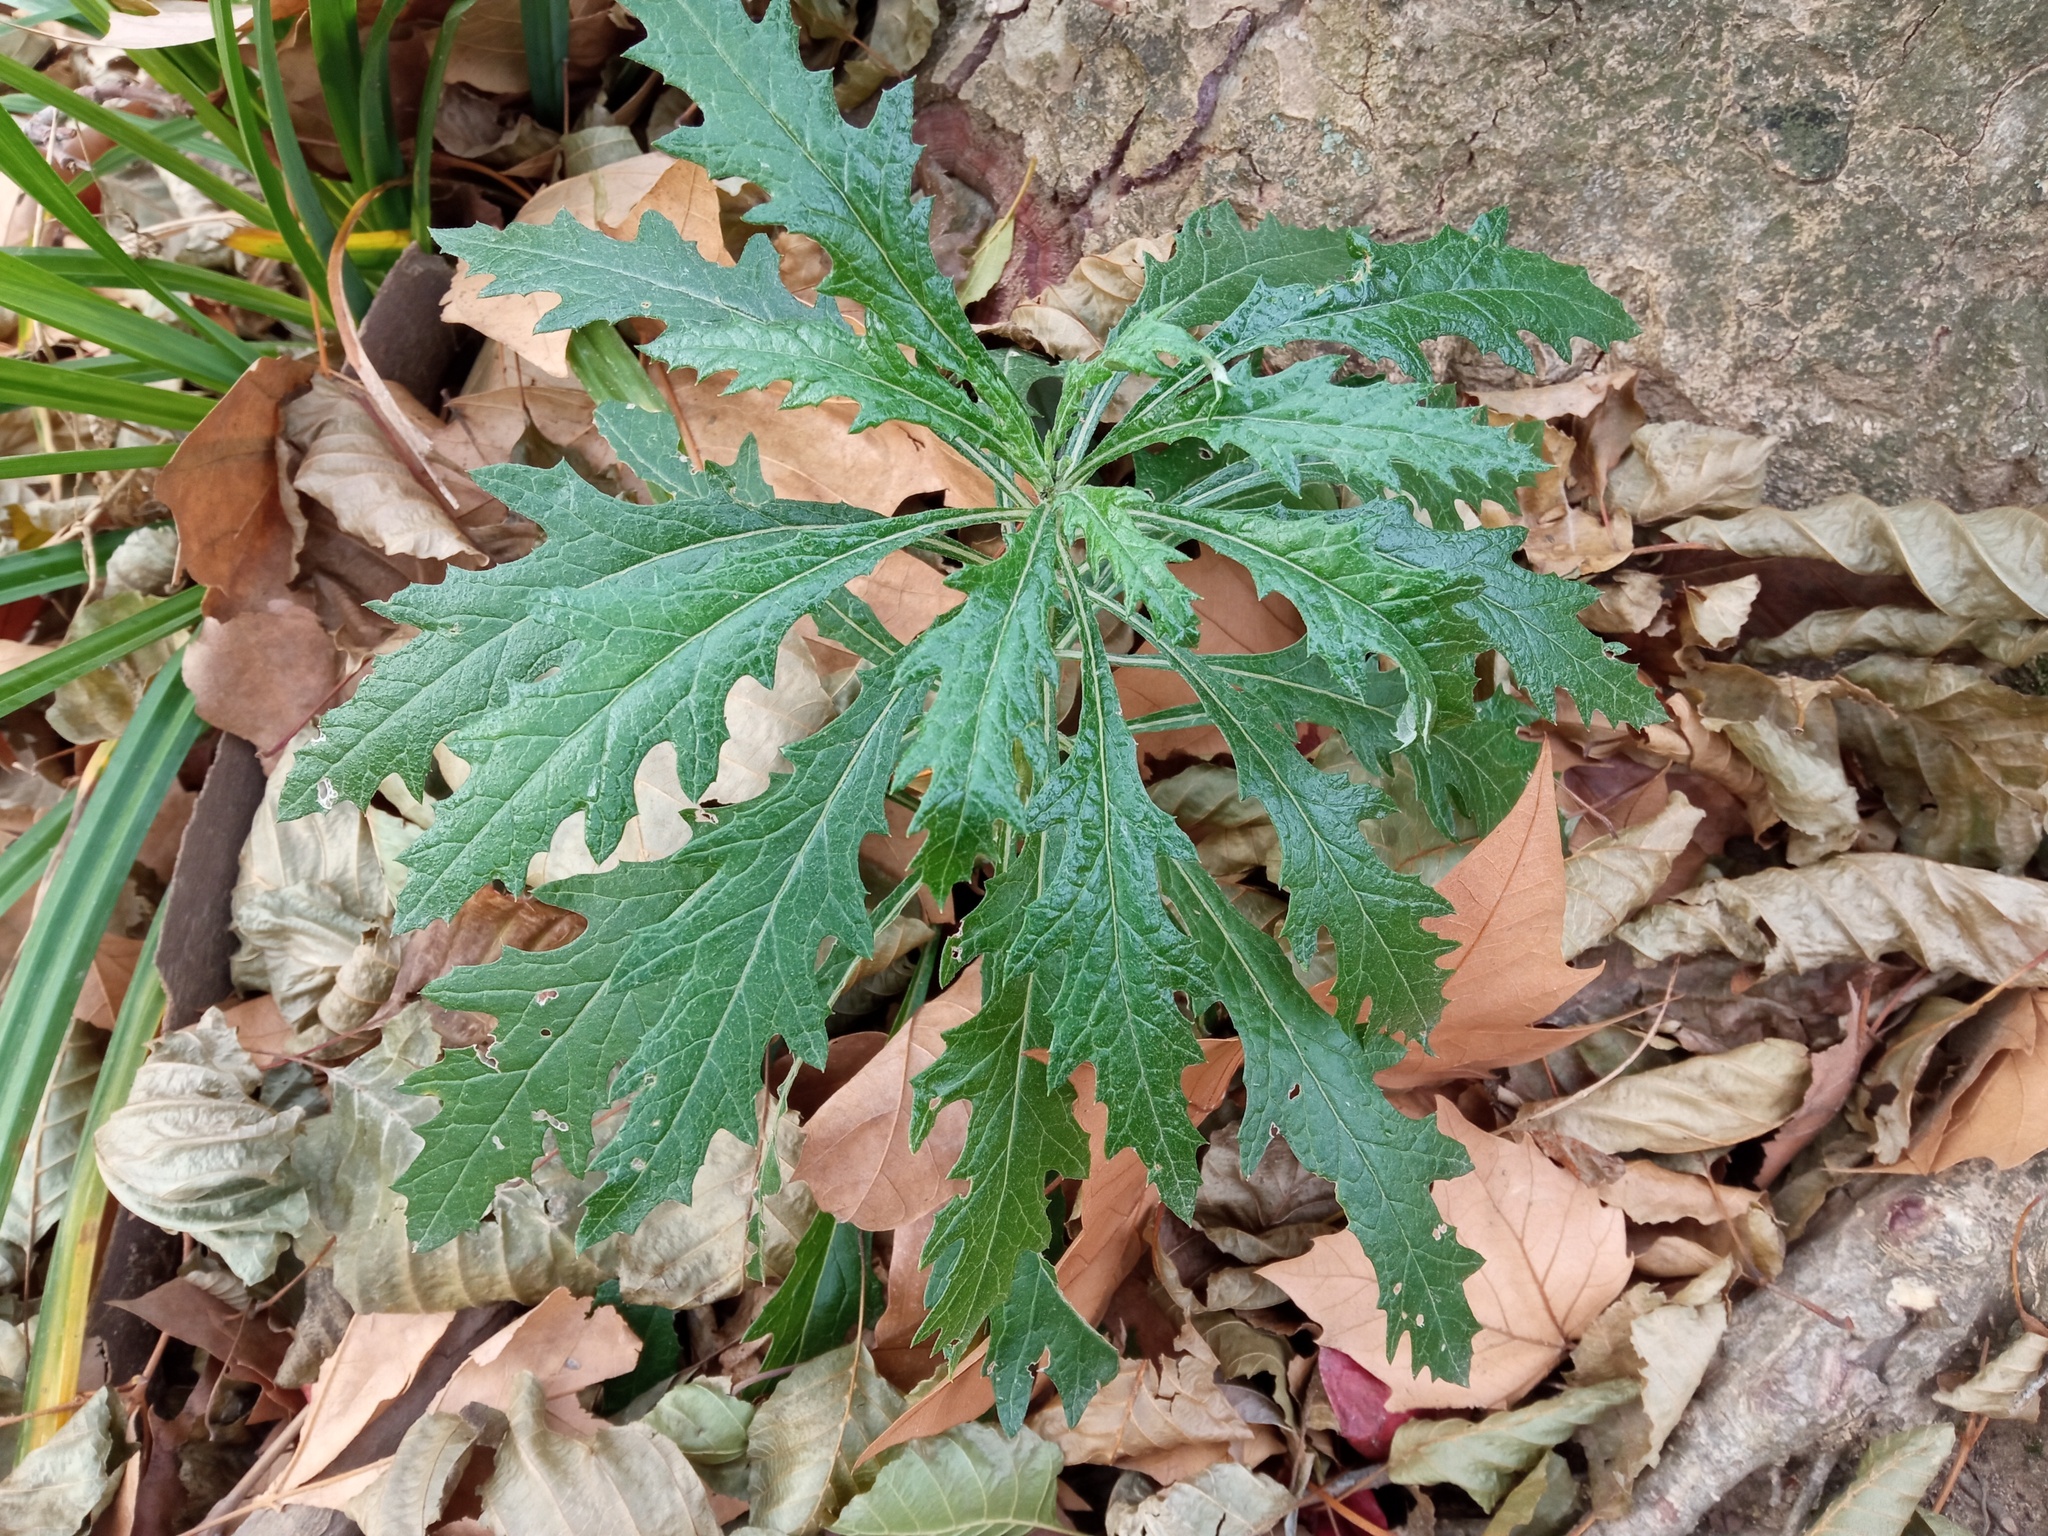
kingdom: Plantae
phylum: Tracheophyta
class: Magnoliopsida
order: Asterales
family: Asteraceae
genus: Senecio
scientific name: Senecio pterophorus
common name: Shoddy ragwort
